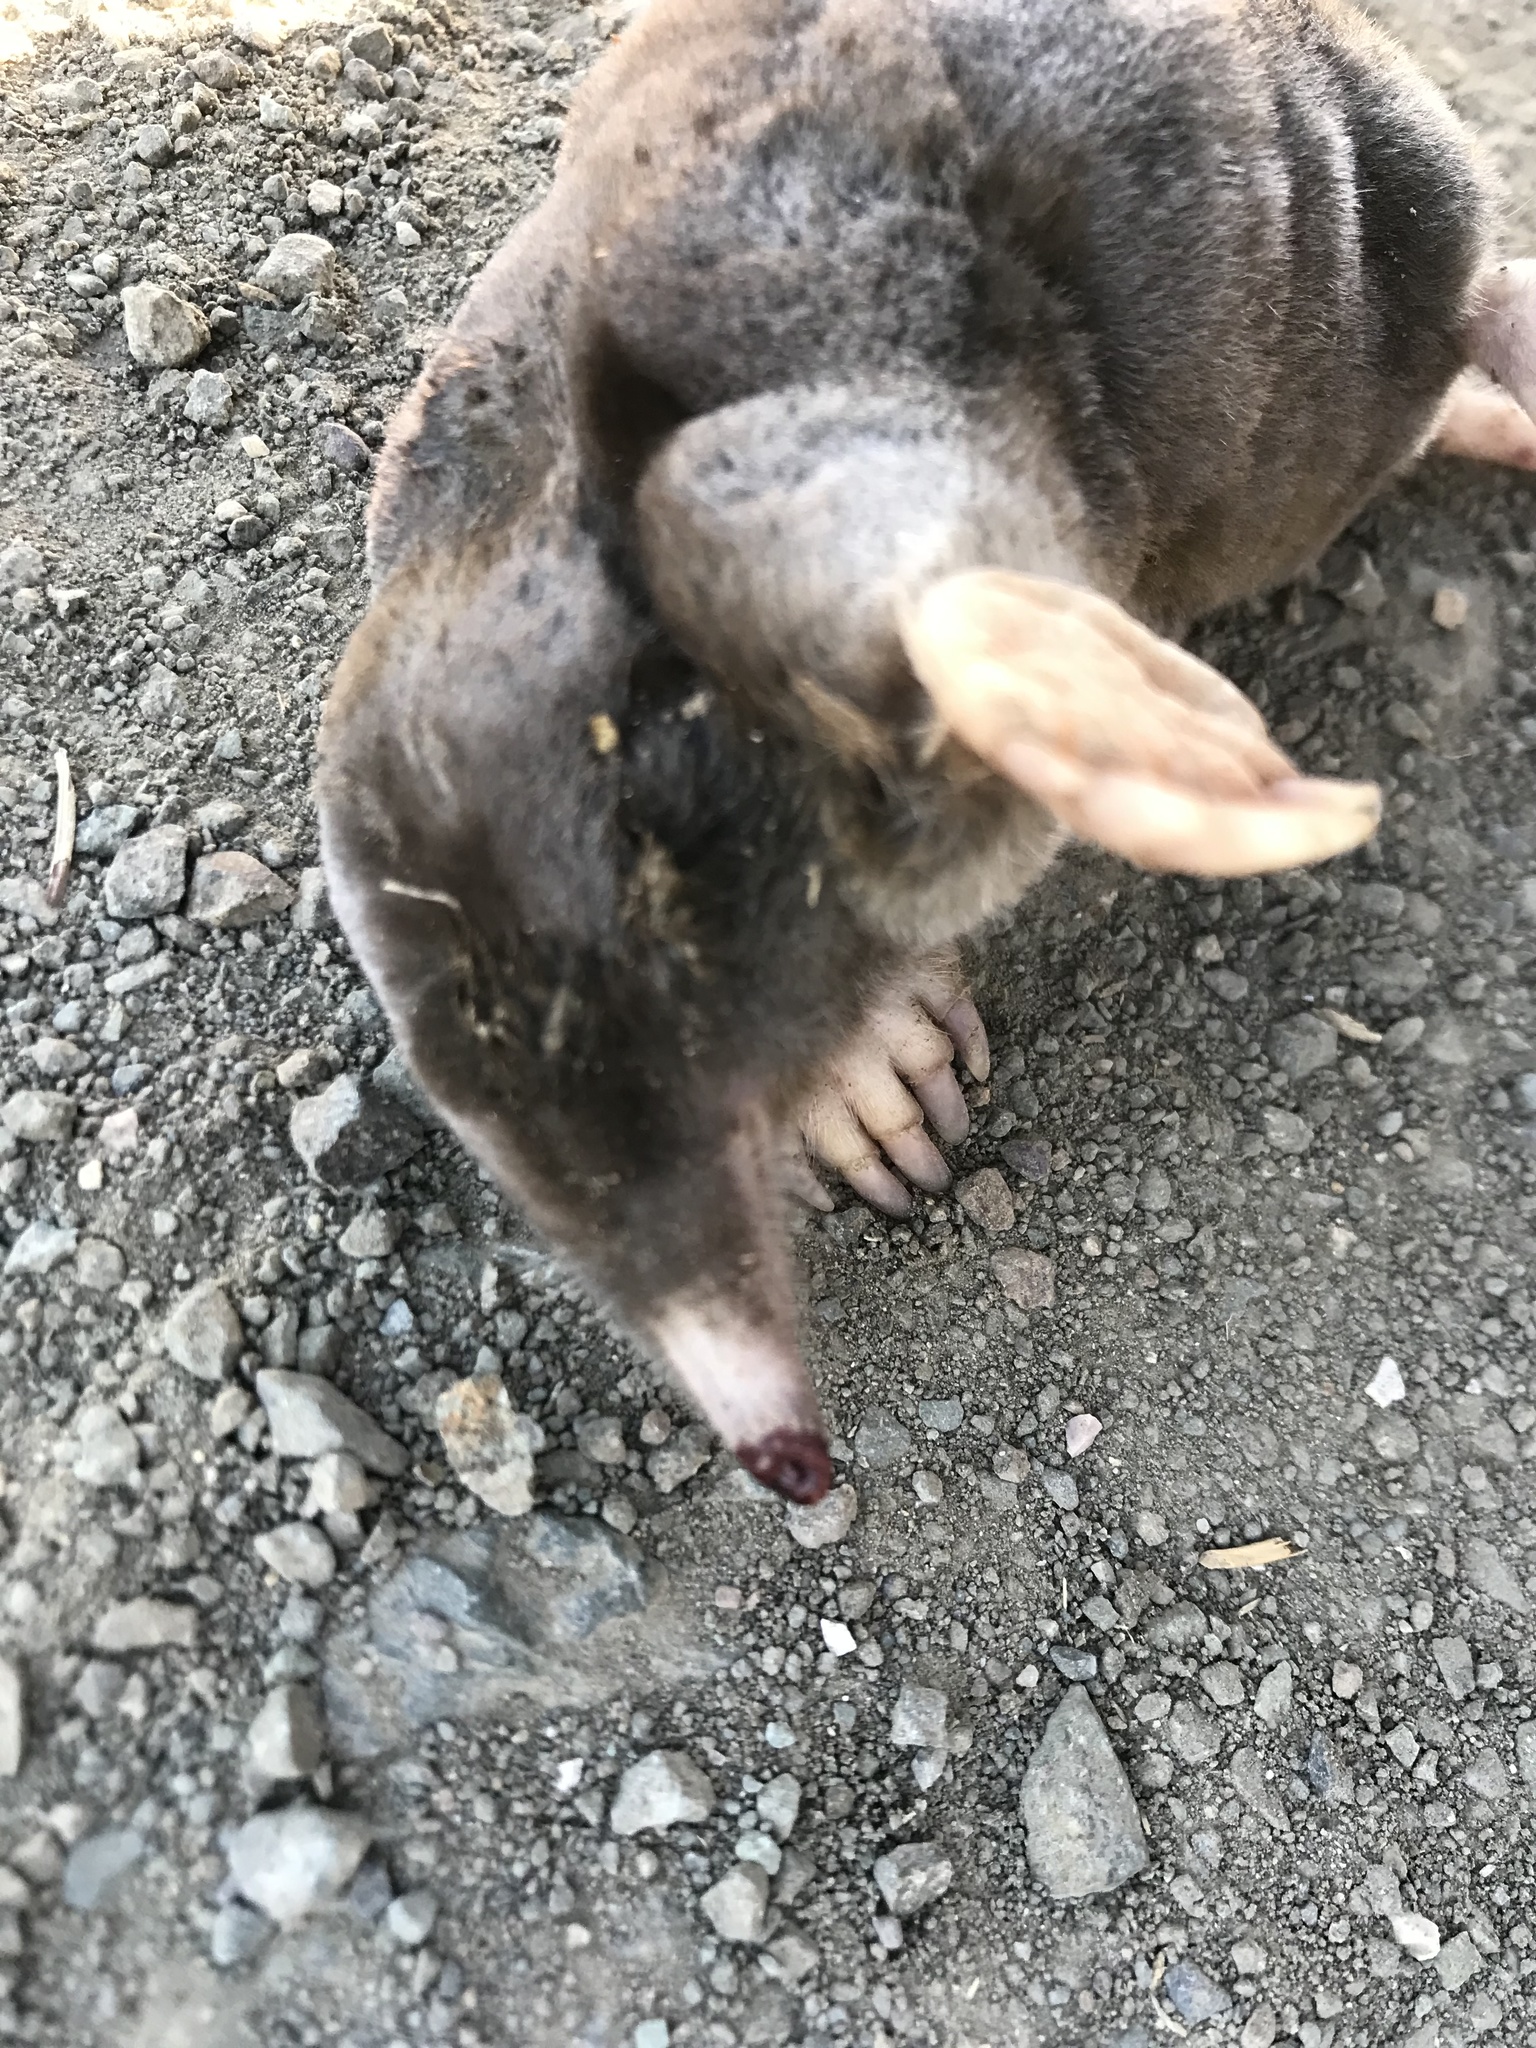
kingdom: Animalia
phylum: Chordata
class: Mammalia
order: Soricomorpha
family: Talpidae
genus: Scapanus
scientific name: Scapanus latimanus
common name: Broad-footed mole
